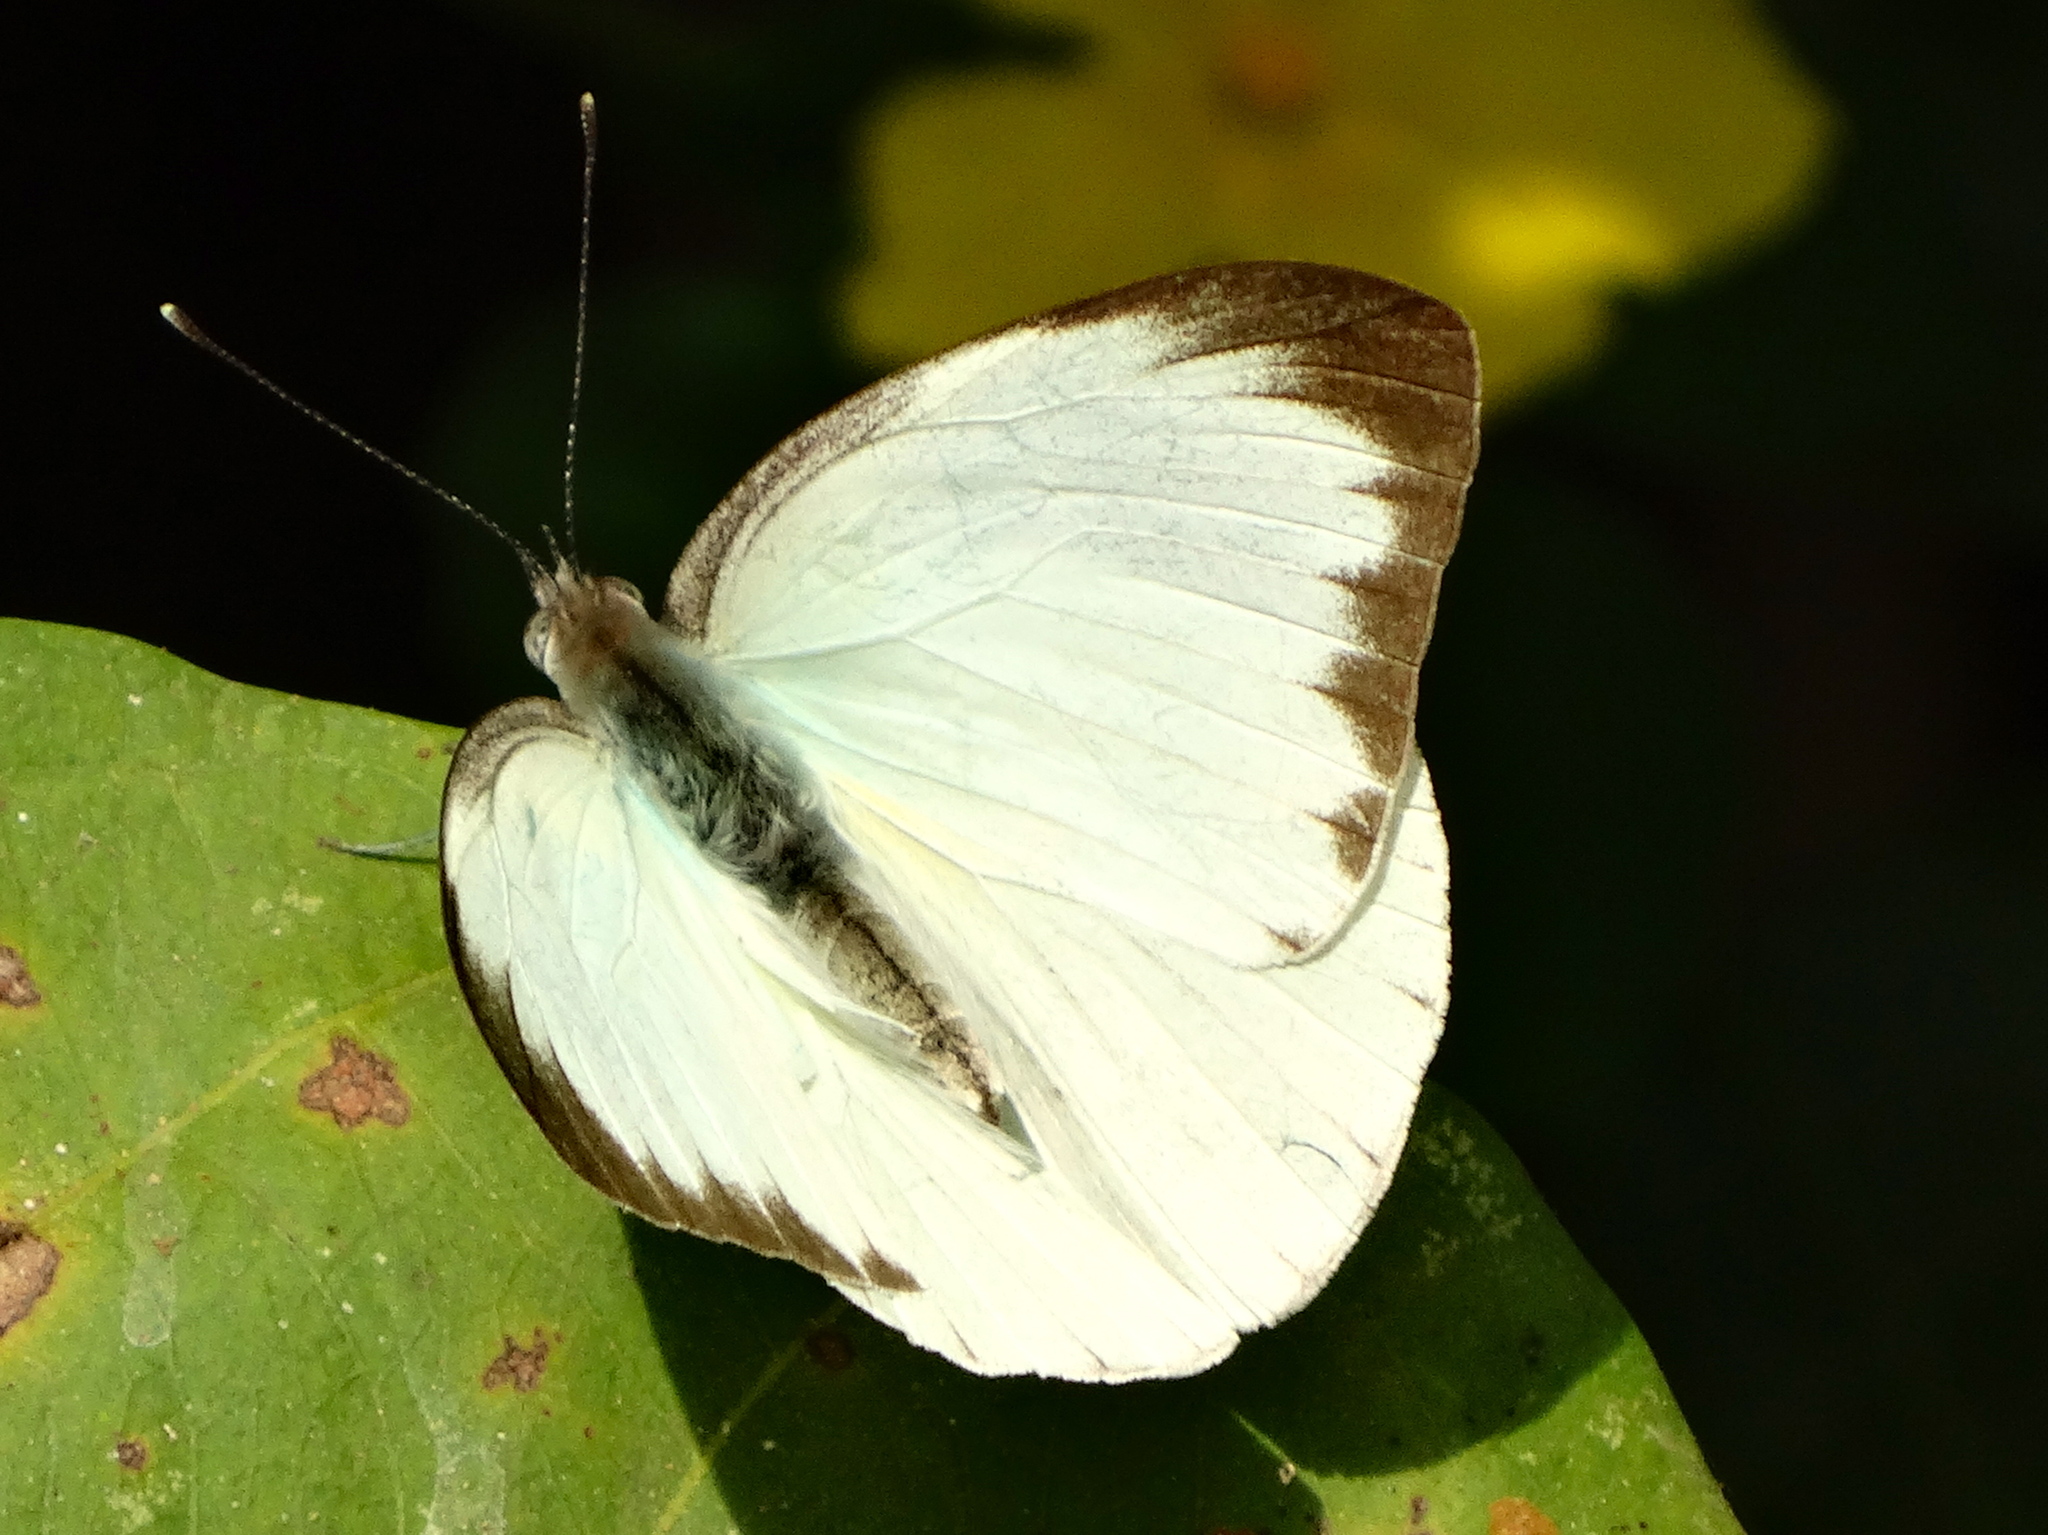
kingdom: Animalia
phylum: Arthropoda
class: Insecta
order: Lepidoptera
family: Pieridae
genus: Ascia
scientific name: Ascia monuste
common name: Great southern white
